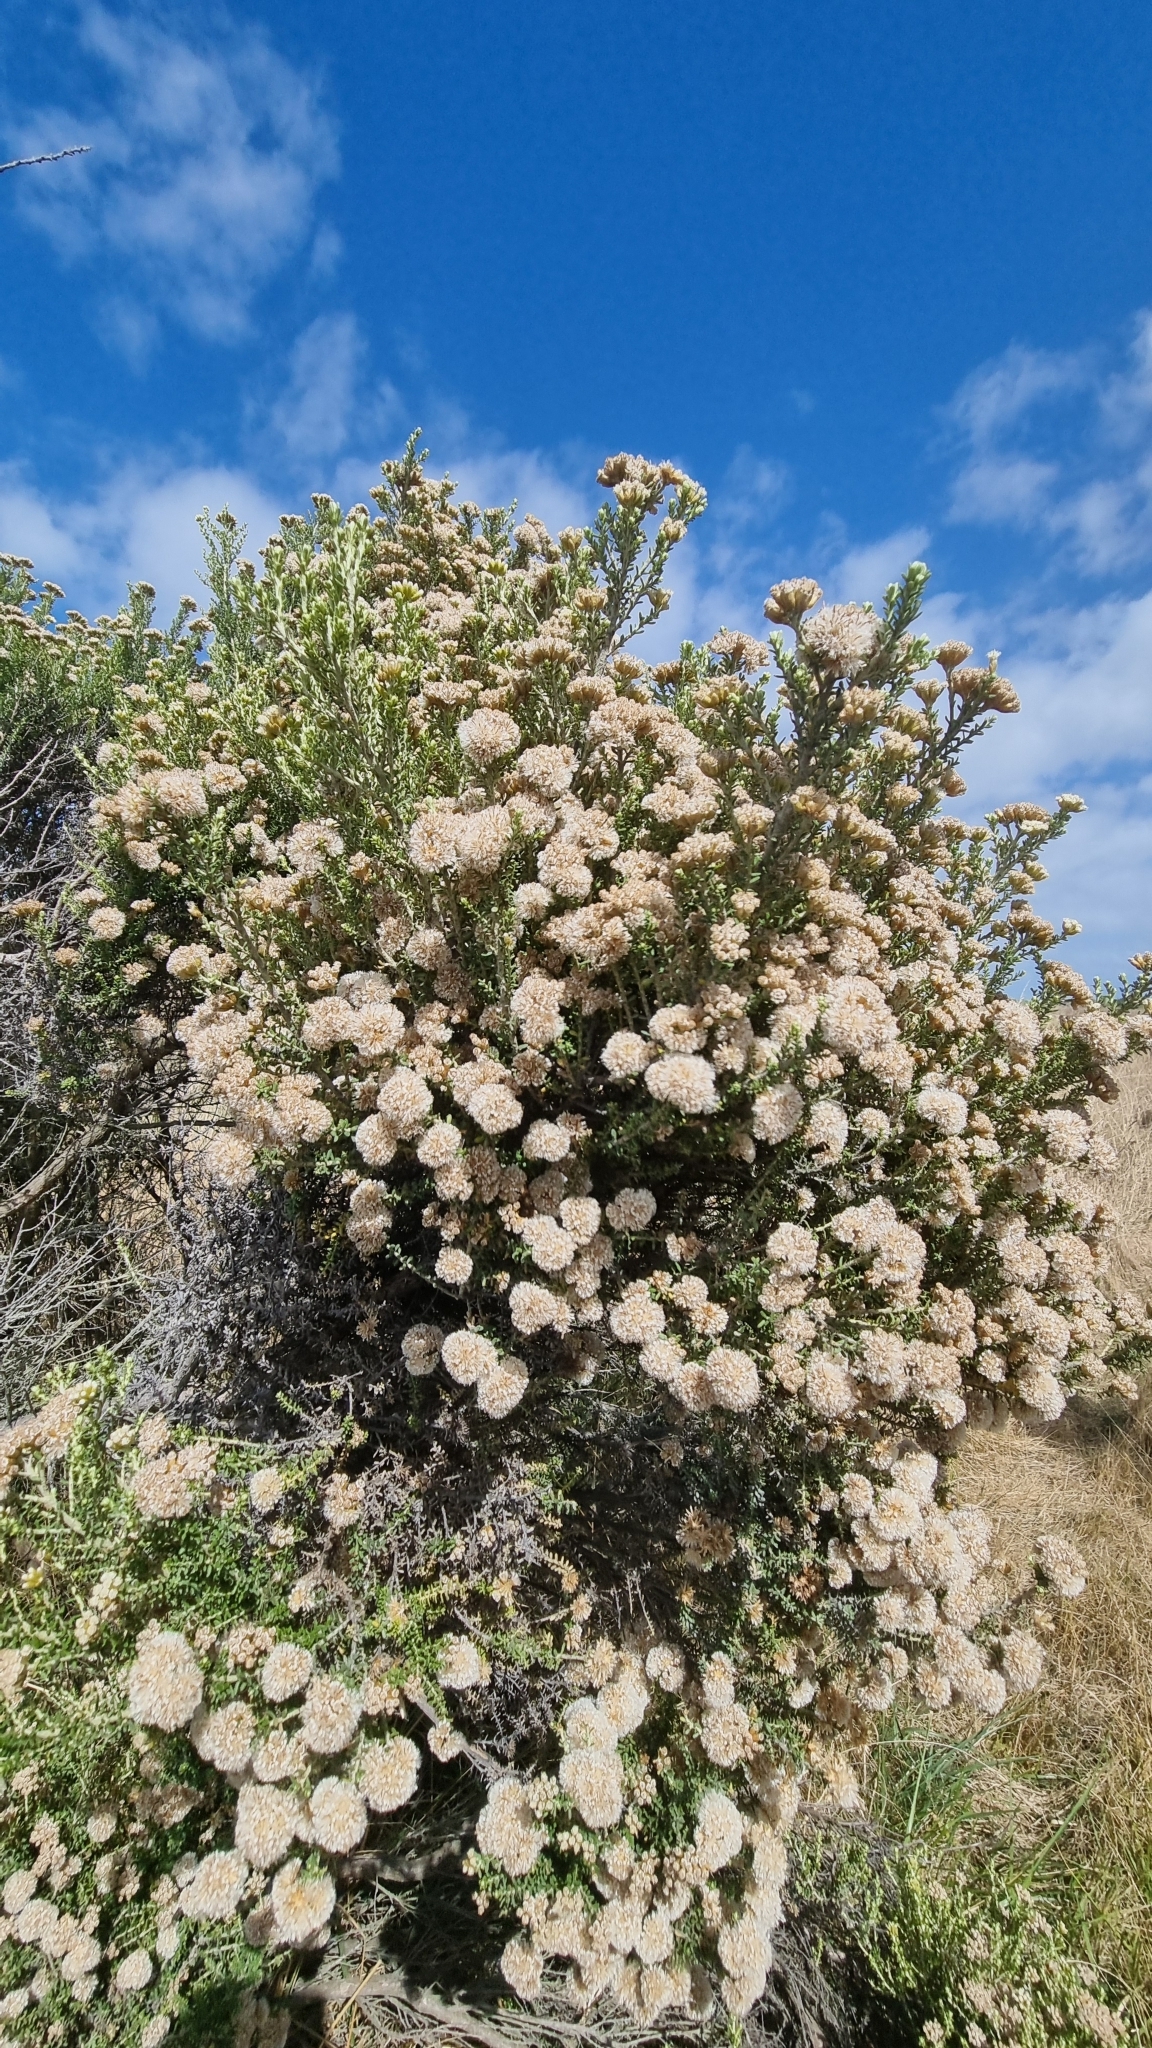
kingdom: Plantae
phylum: Tracheophyta
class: Magnoliopsida
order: Asterales
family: Asteraceae
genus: Ozothamnus
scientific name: Ozothamnus leptophyllus
